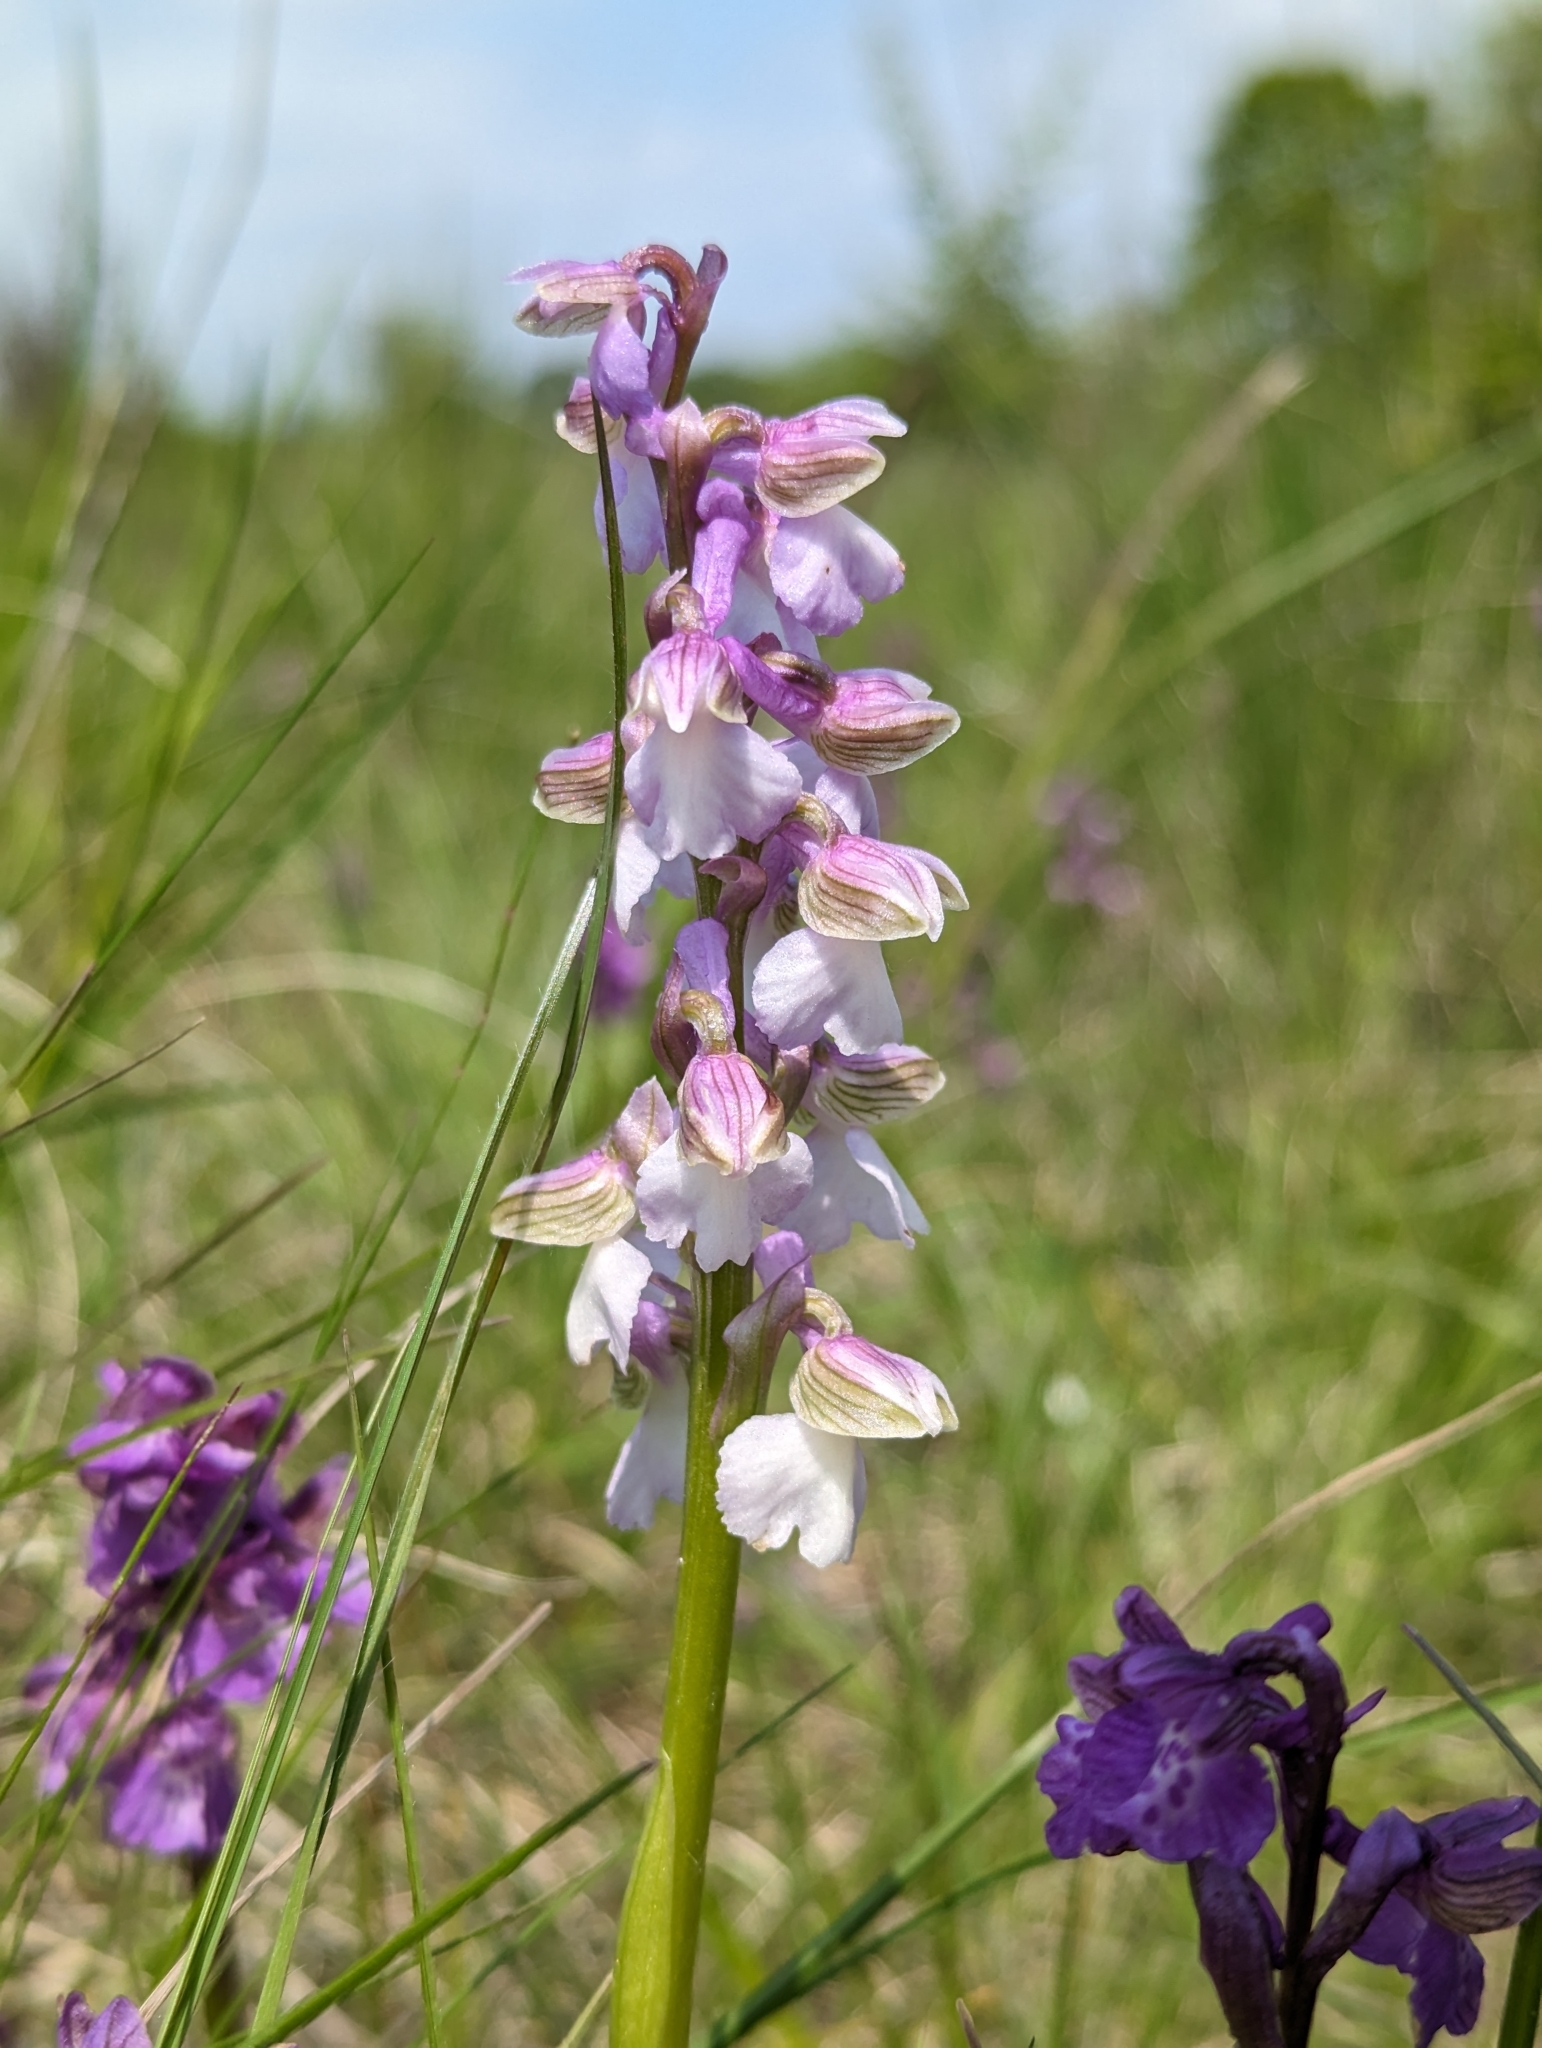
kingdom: Plantae
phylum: Tracheophyta
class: Liliopsida
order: Asparagales
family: Orchidaceae
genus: Anacamptis
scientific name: Anacamptis morio
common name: Green-winged orchid
